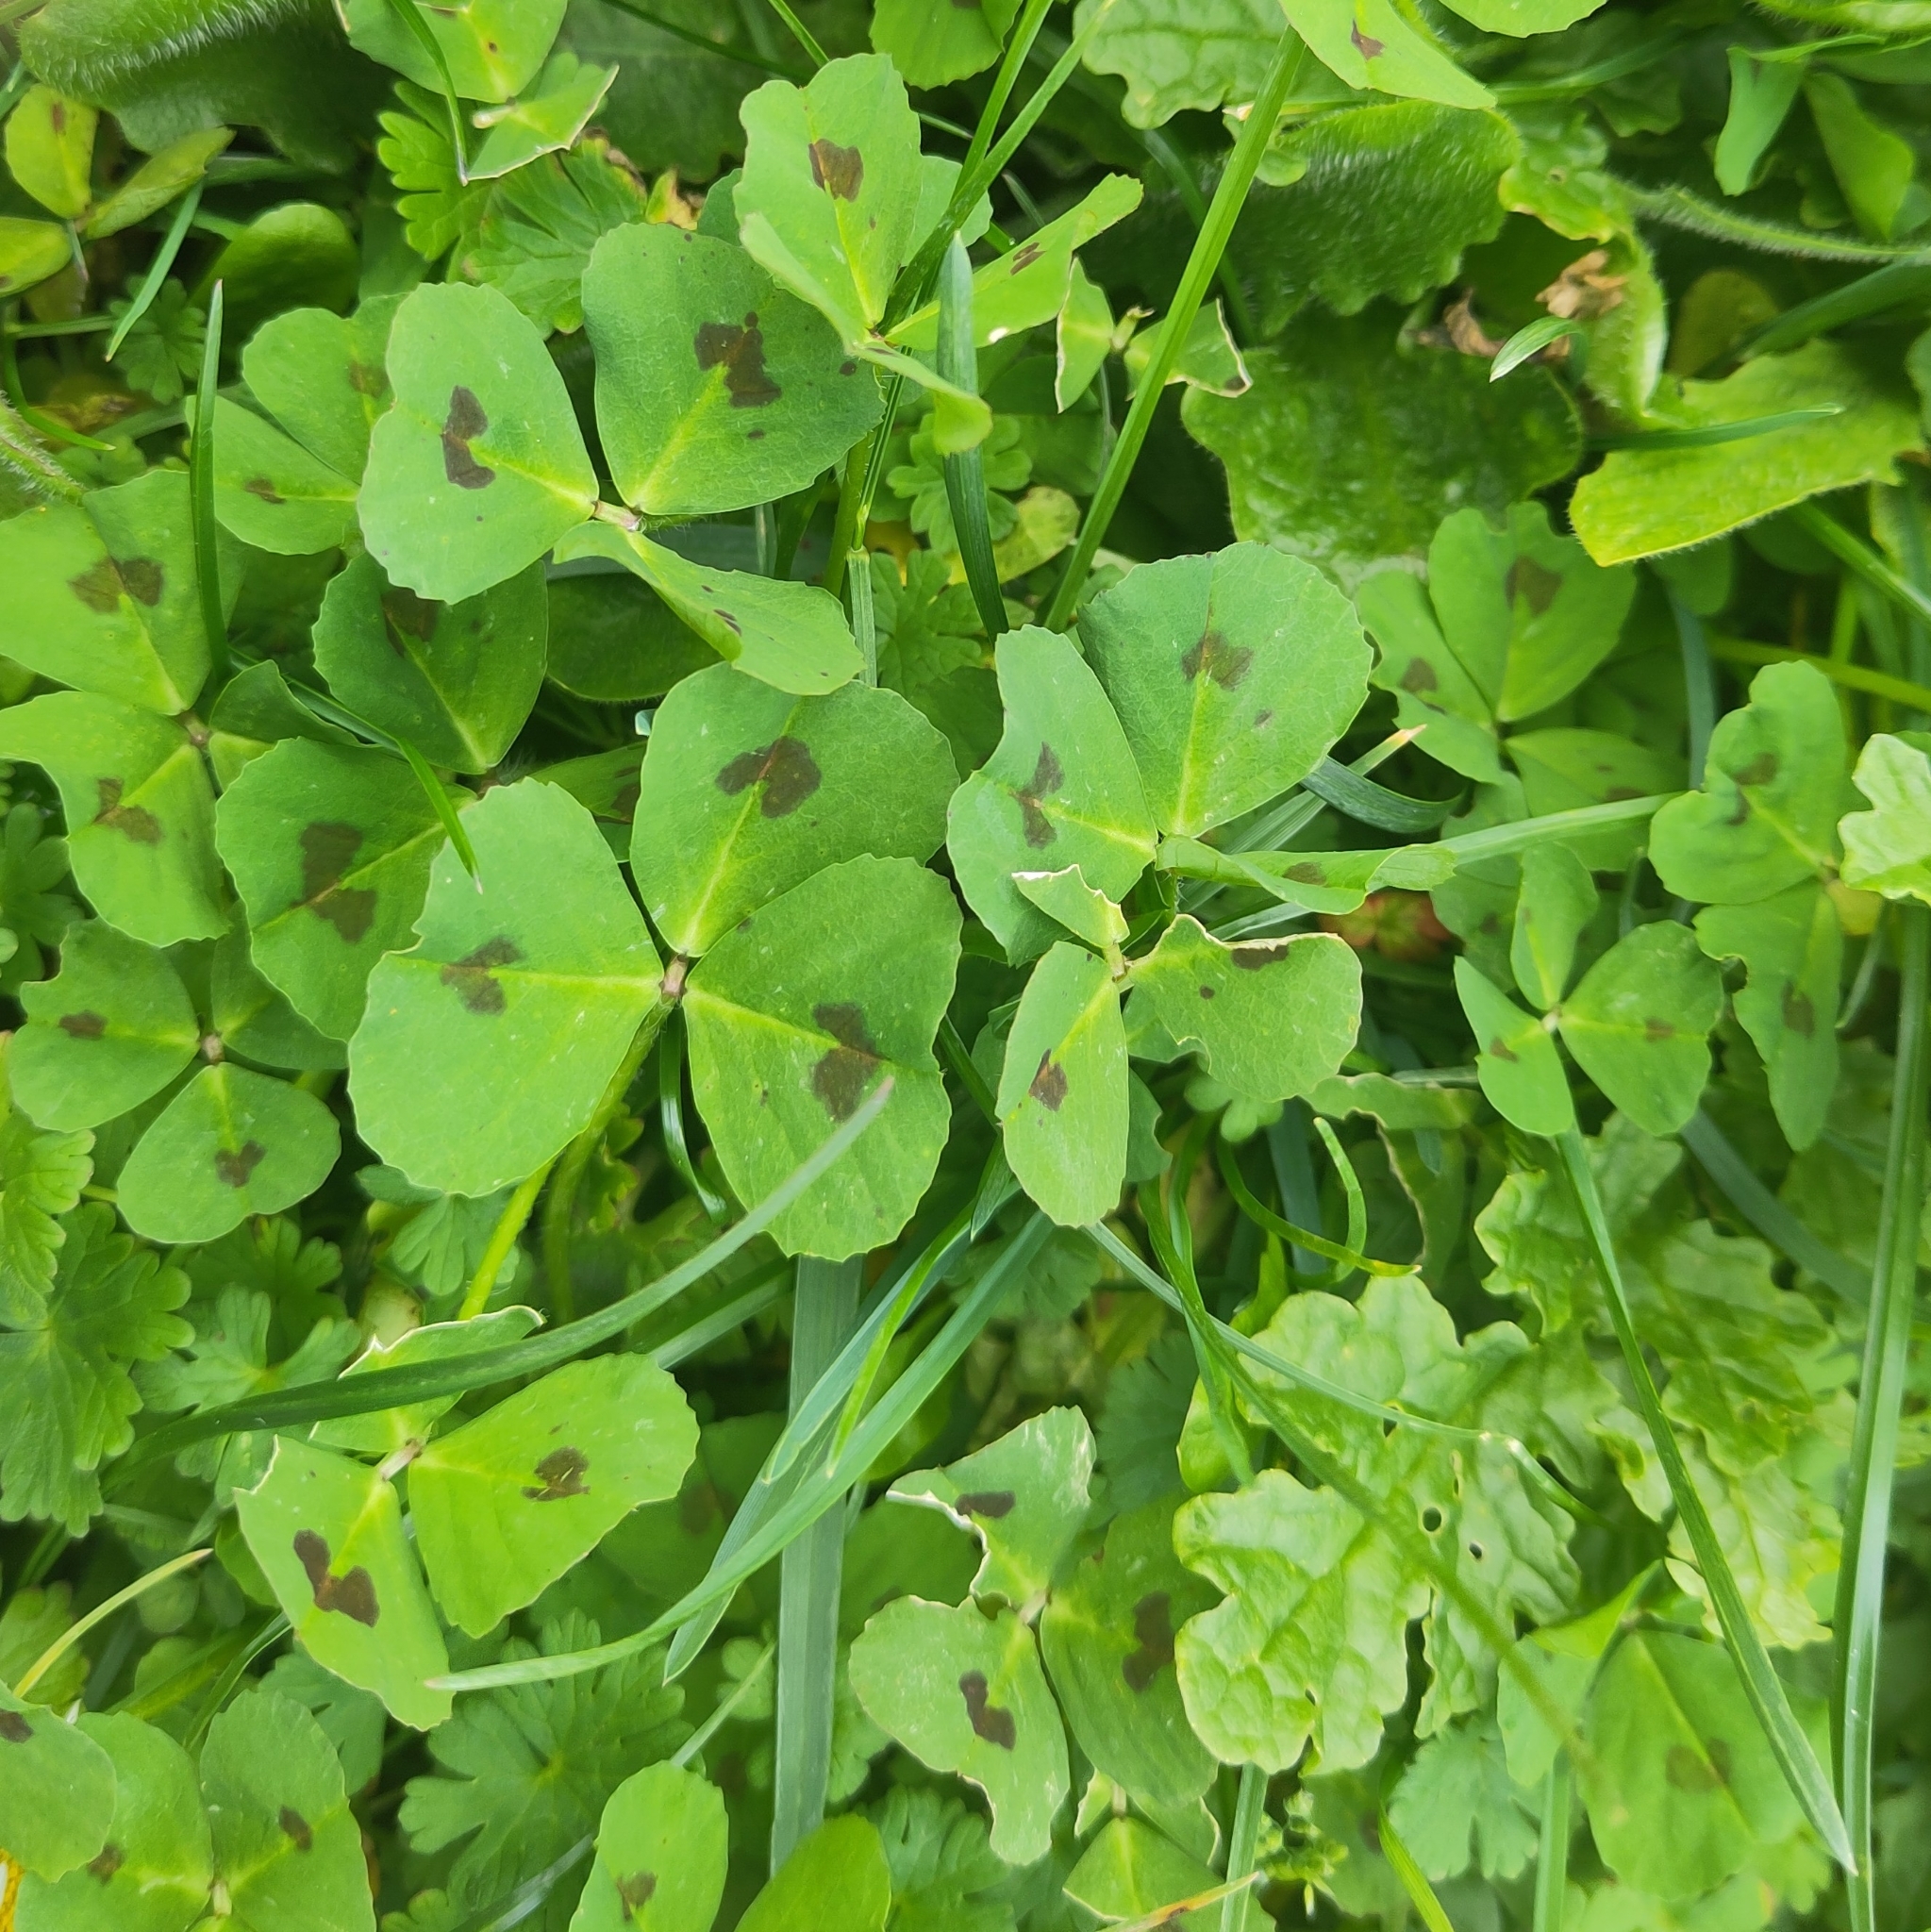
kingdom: Plantae
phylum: Tracheophyta
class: Magnoliopsida
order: Fabales
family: Fabaceae
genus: Medicago
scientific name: Medicago arabica
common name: Spotted medick
